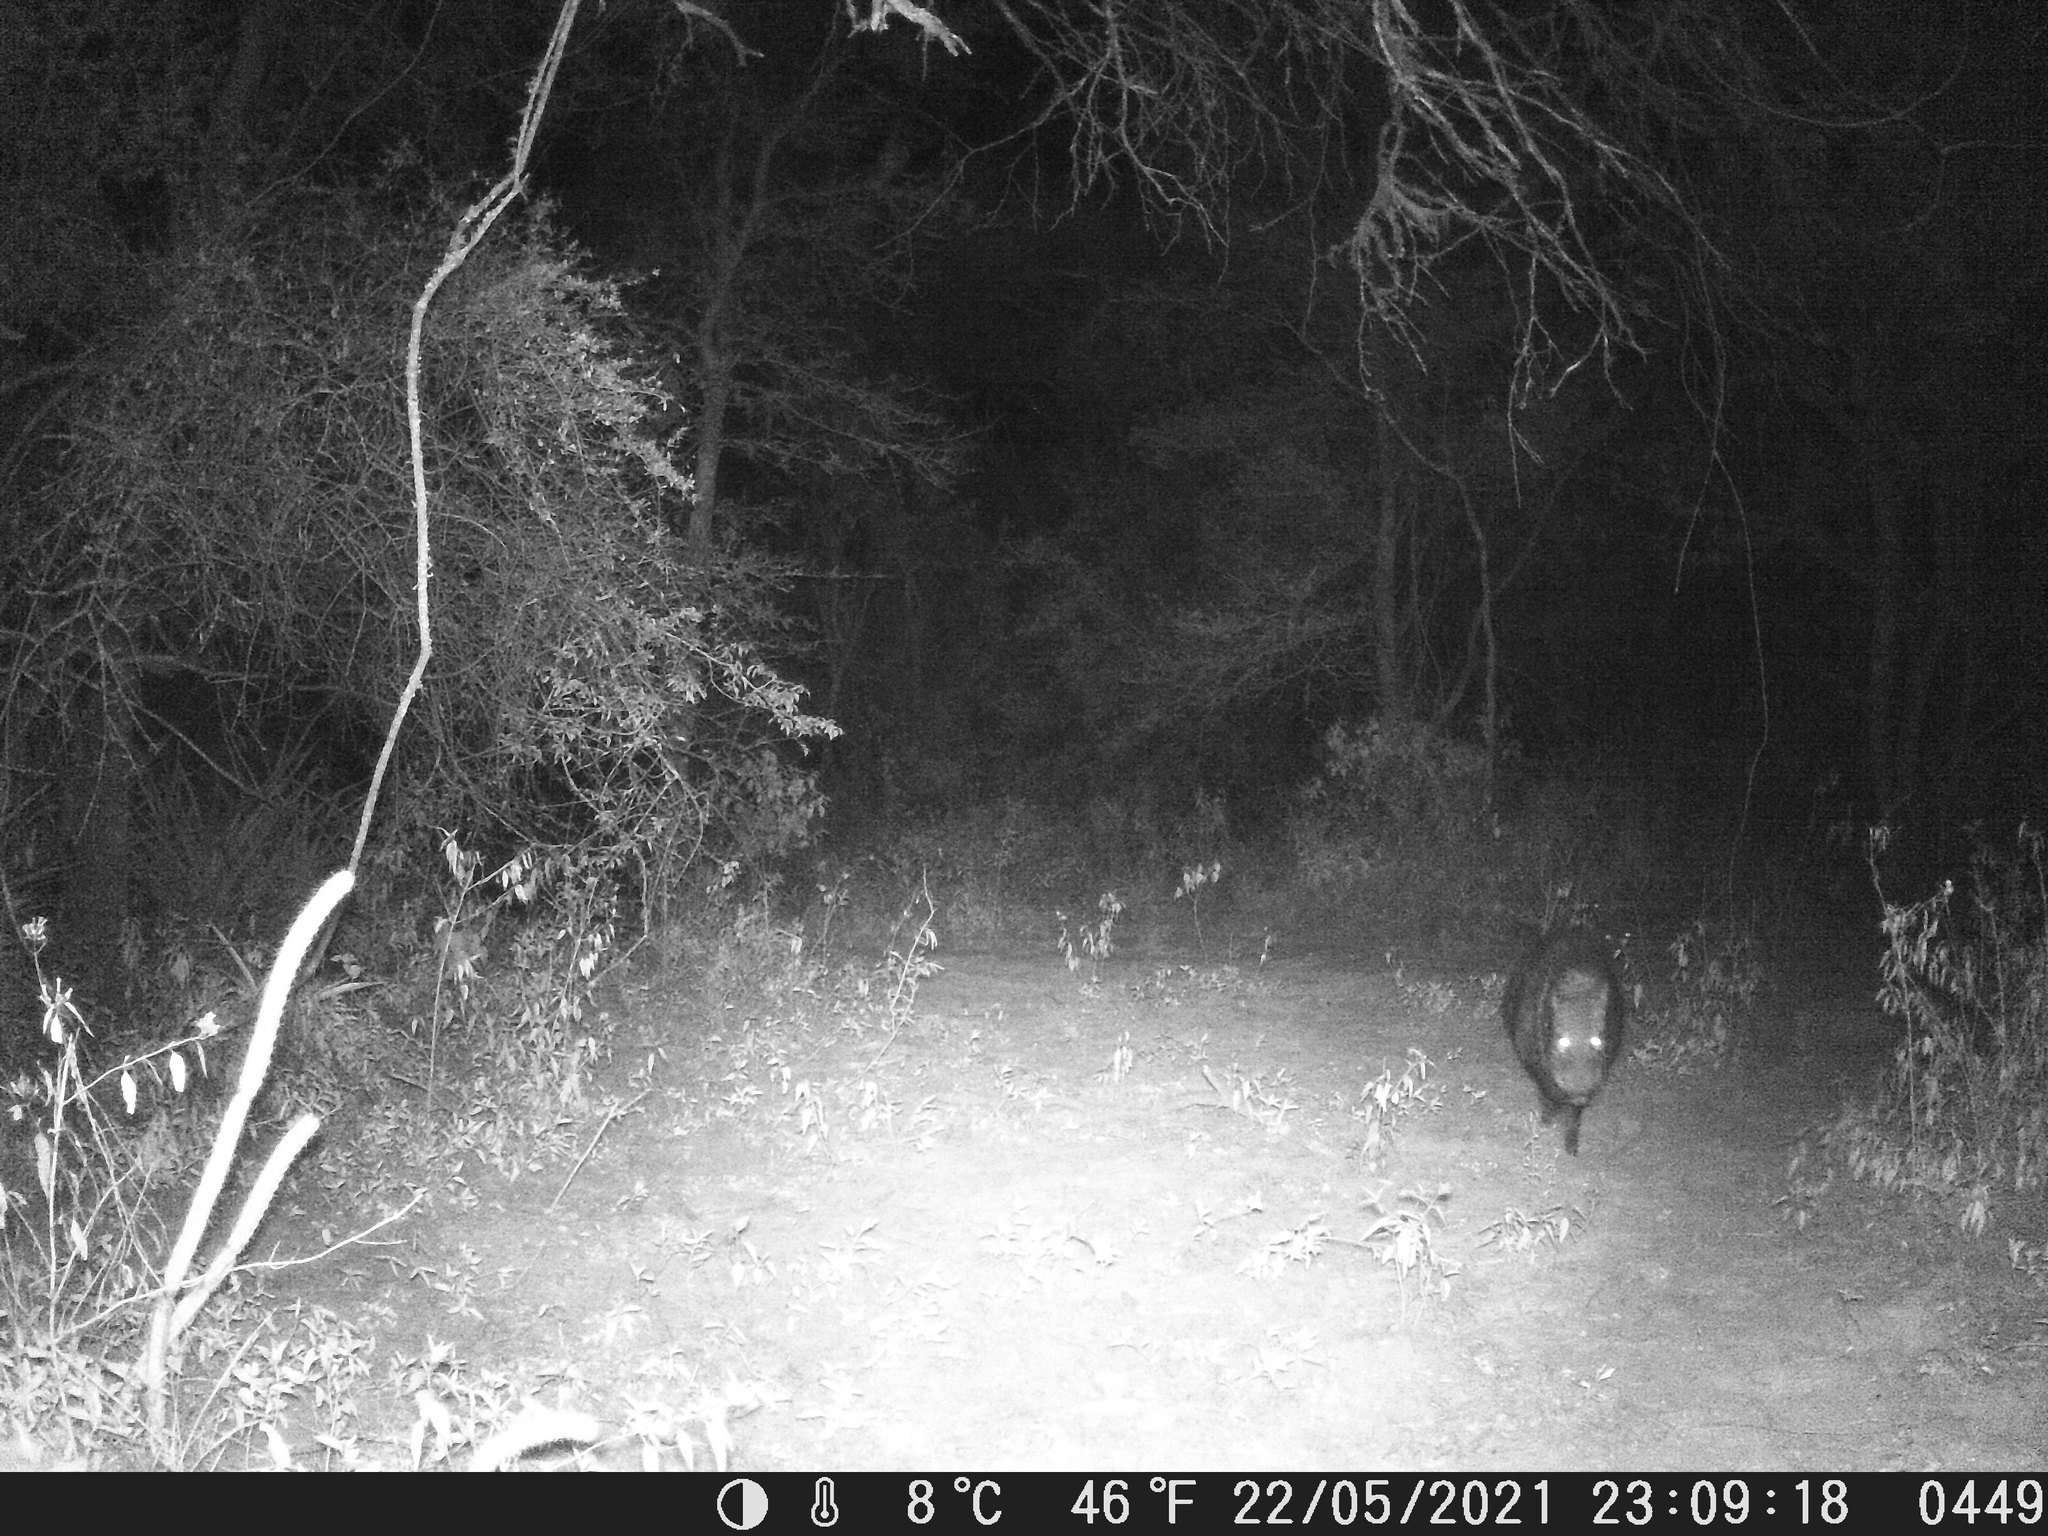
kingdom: Animalia
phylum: Chordata
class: Mammalia
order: Artiodactyla
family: Tayassuidae
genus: Pecari
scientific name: Pecari tajacu
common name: Collared peccary
